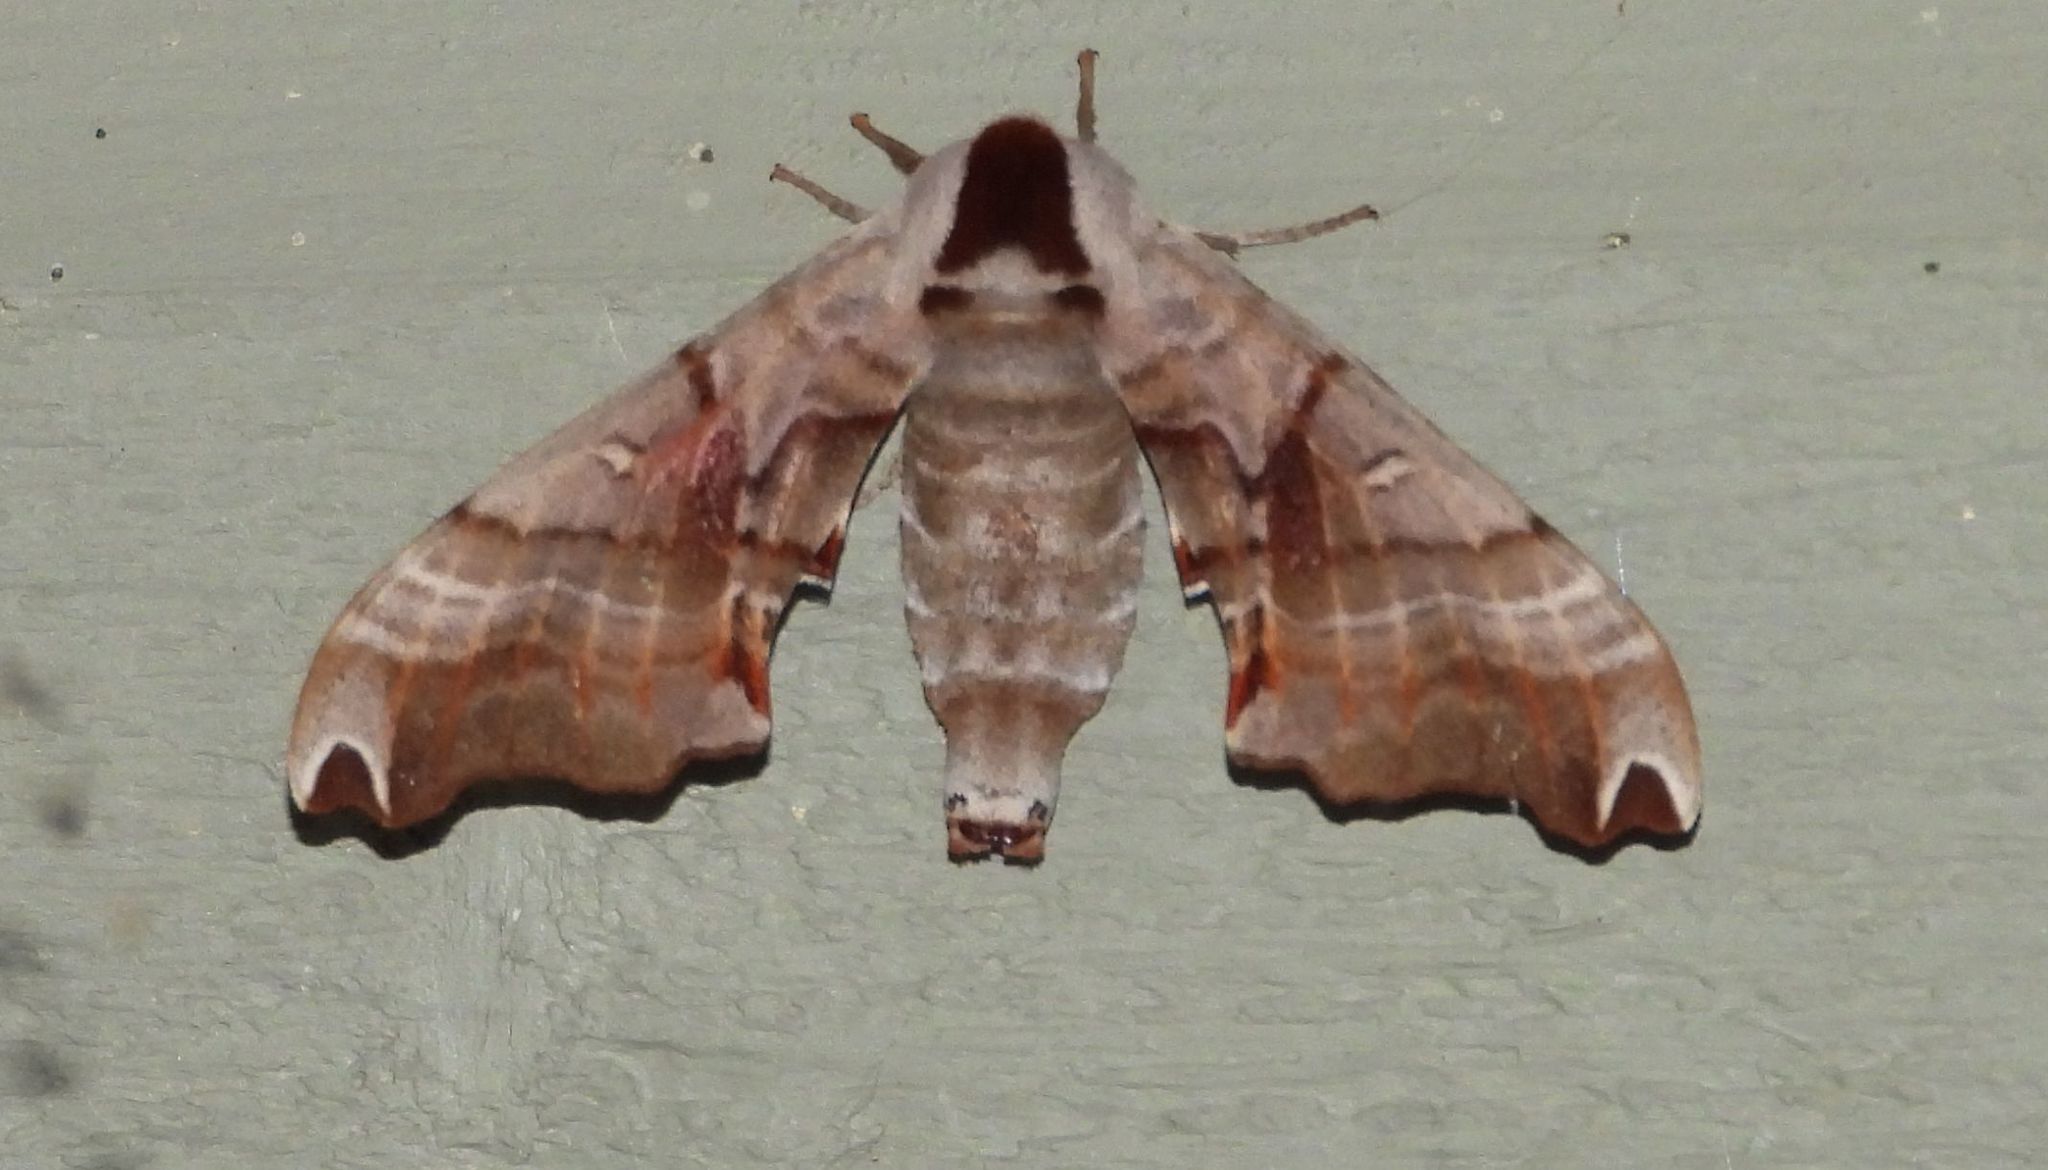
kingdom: Animalia
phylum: Arthropoda
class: Insecta
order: Lepidoptera
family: Sphingidae
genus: Smerinthus
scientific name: Smerinthus jamaicensis
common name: Twin spotted sphinx
